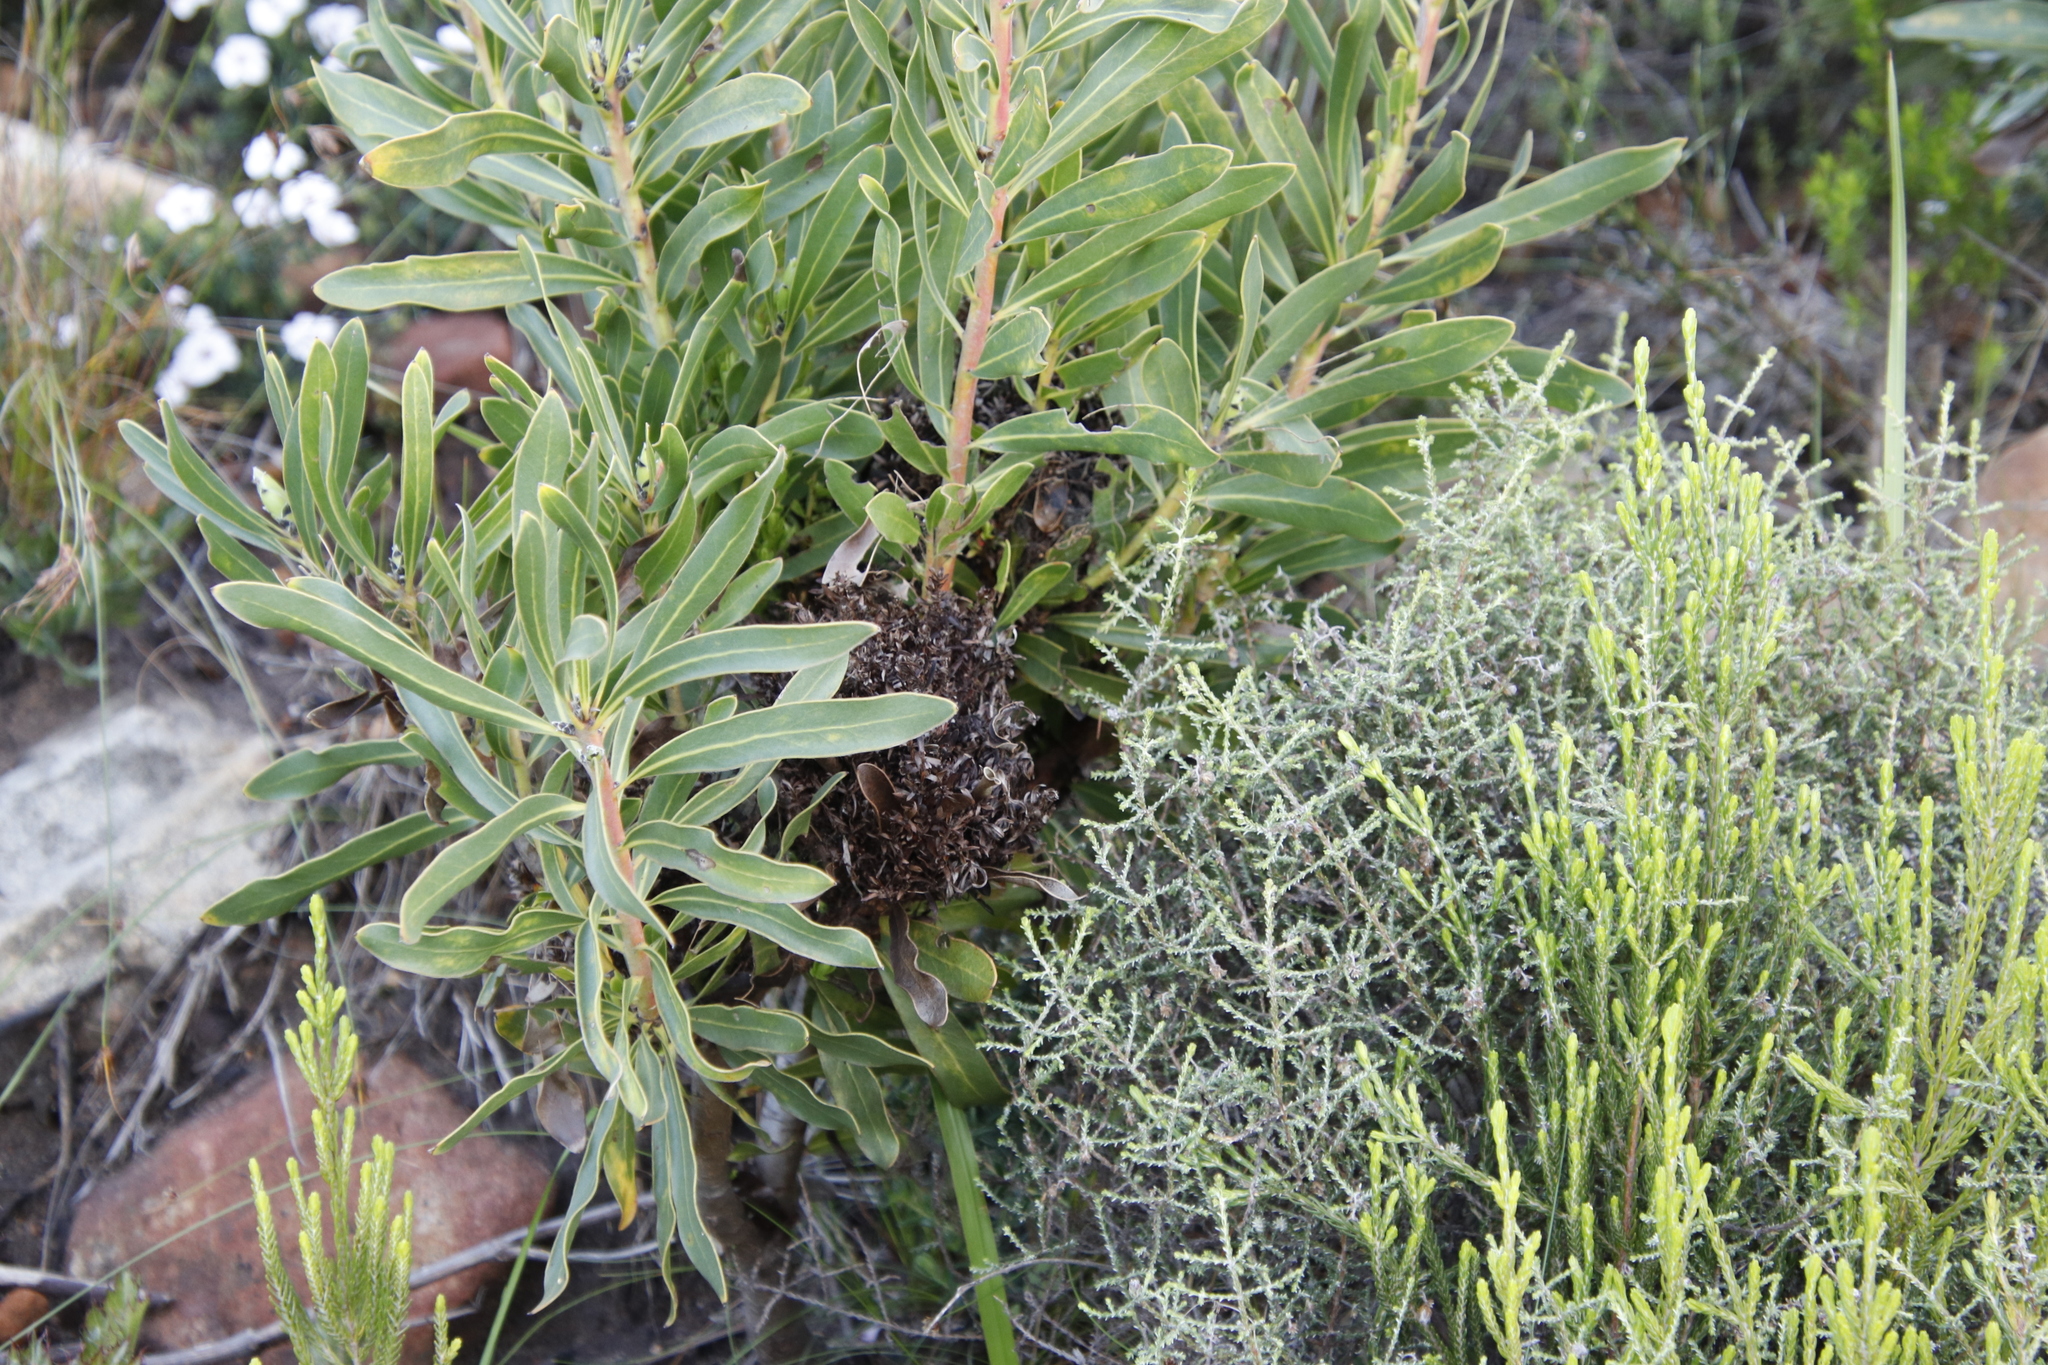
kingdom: Bacteria
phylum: Firmicutes
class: Bacilli
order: Acholeplasmatales
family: Acholeplasmataceae
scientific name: Acholeplasmataceae
